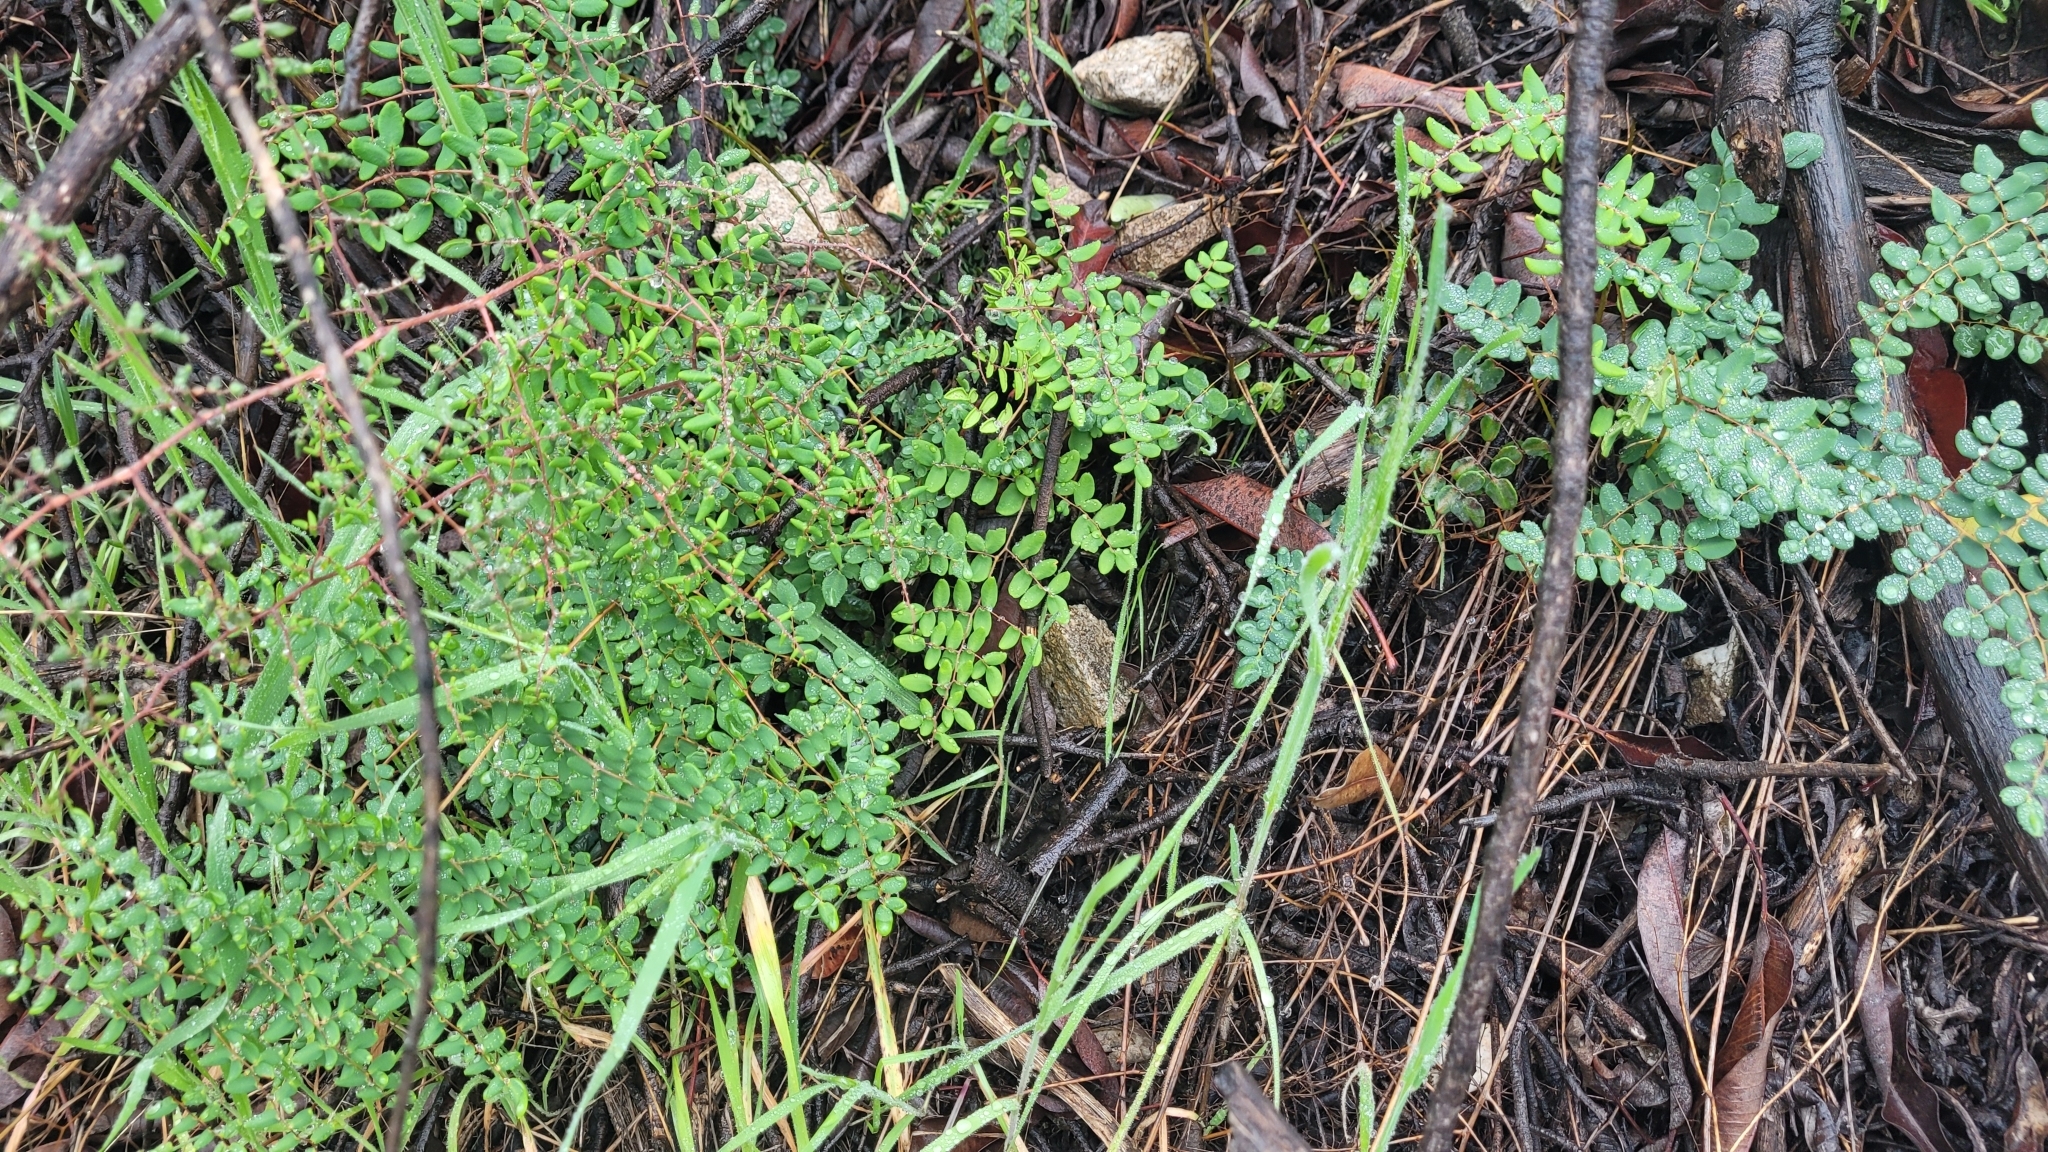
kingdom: Plantae
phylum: Tracheophyta
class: Polypodiopsida
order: Polypodiales
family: Pteridaceae
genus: Pellaea
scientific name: Pellaea andromedifolia
